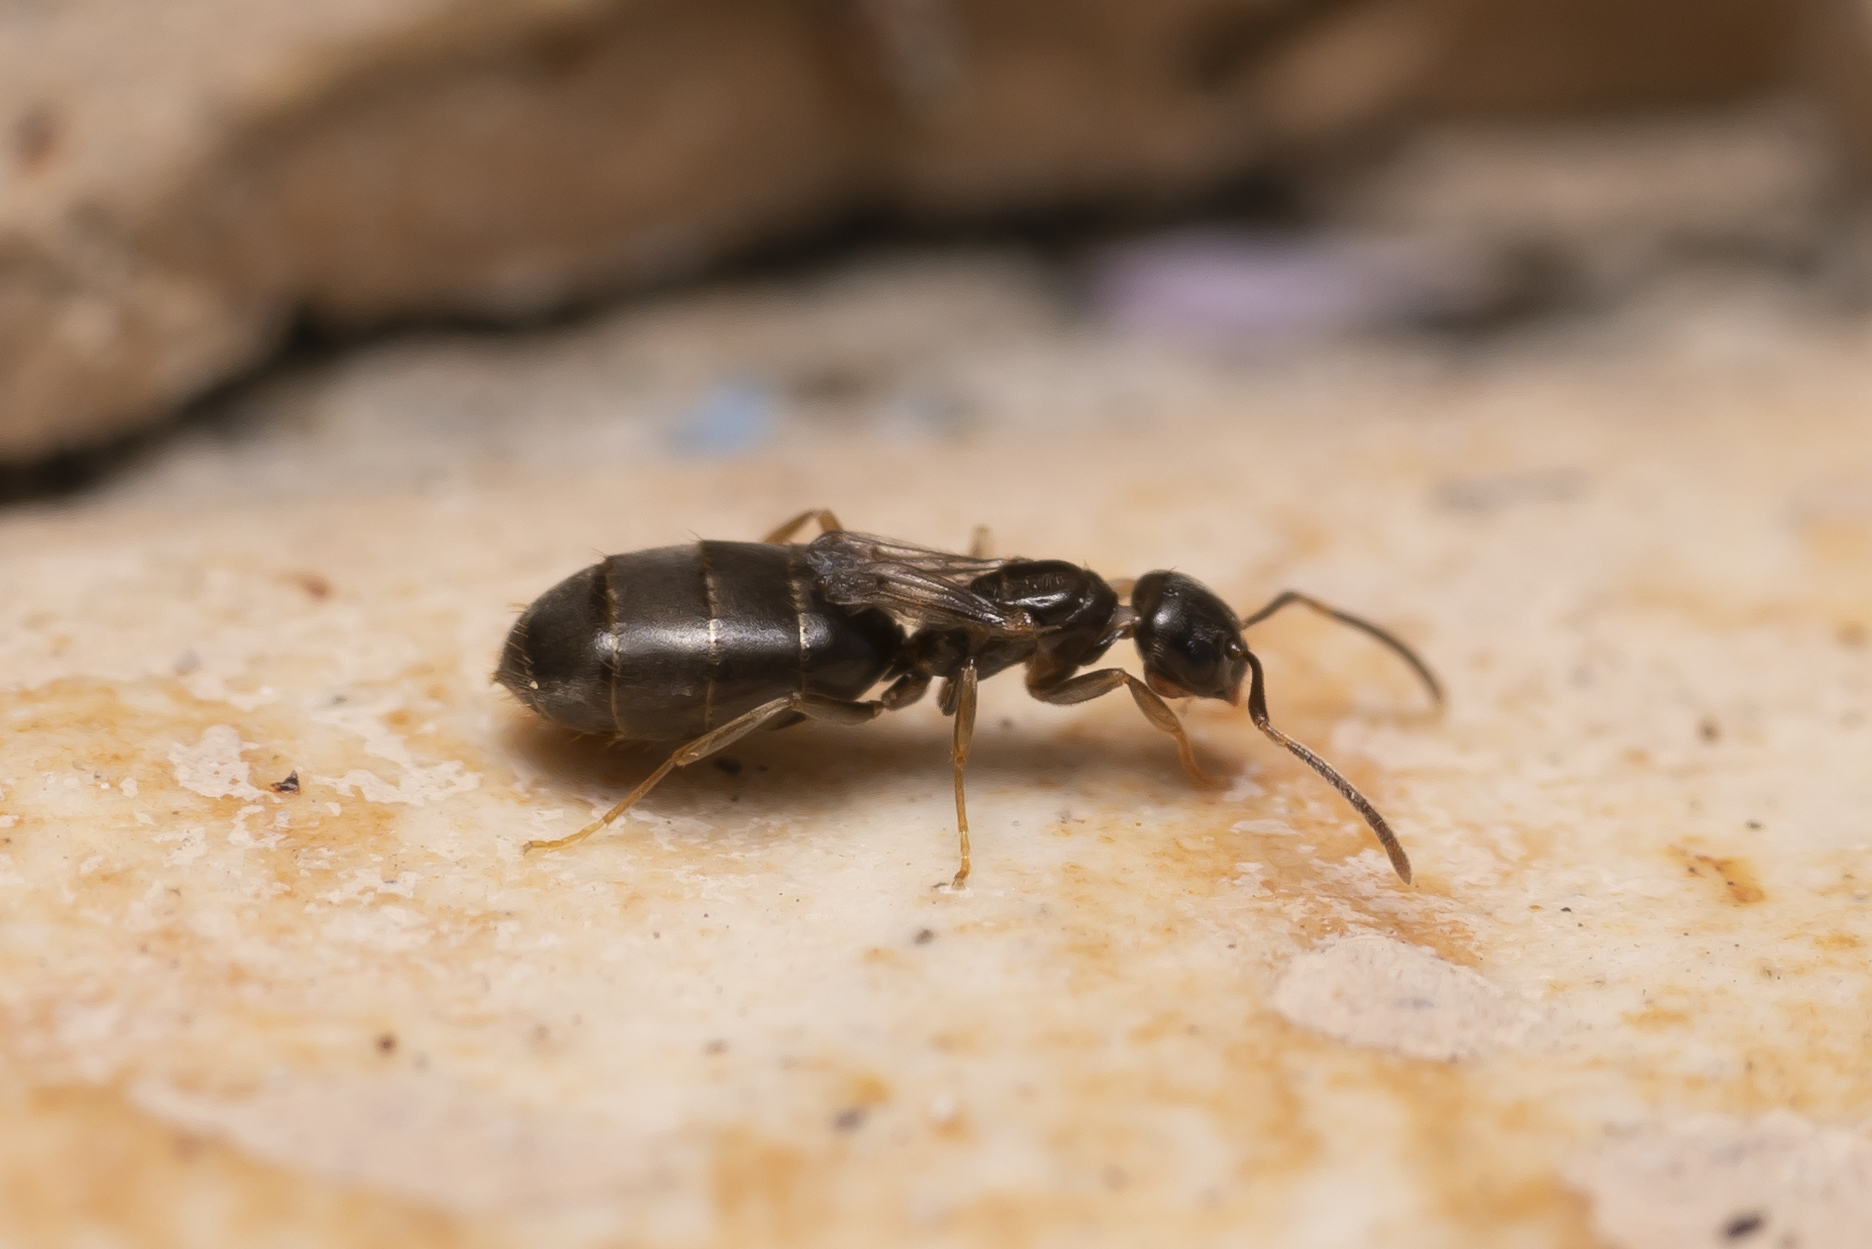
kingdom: Animalia
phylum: Arthropoda
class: Insecta
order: Hymenoptera
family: Formicidae
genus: Plagiolepis
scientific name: Plagiolepis pallescens
